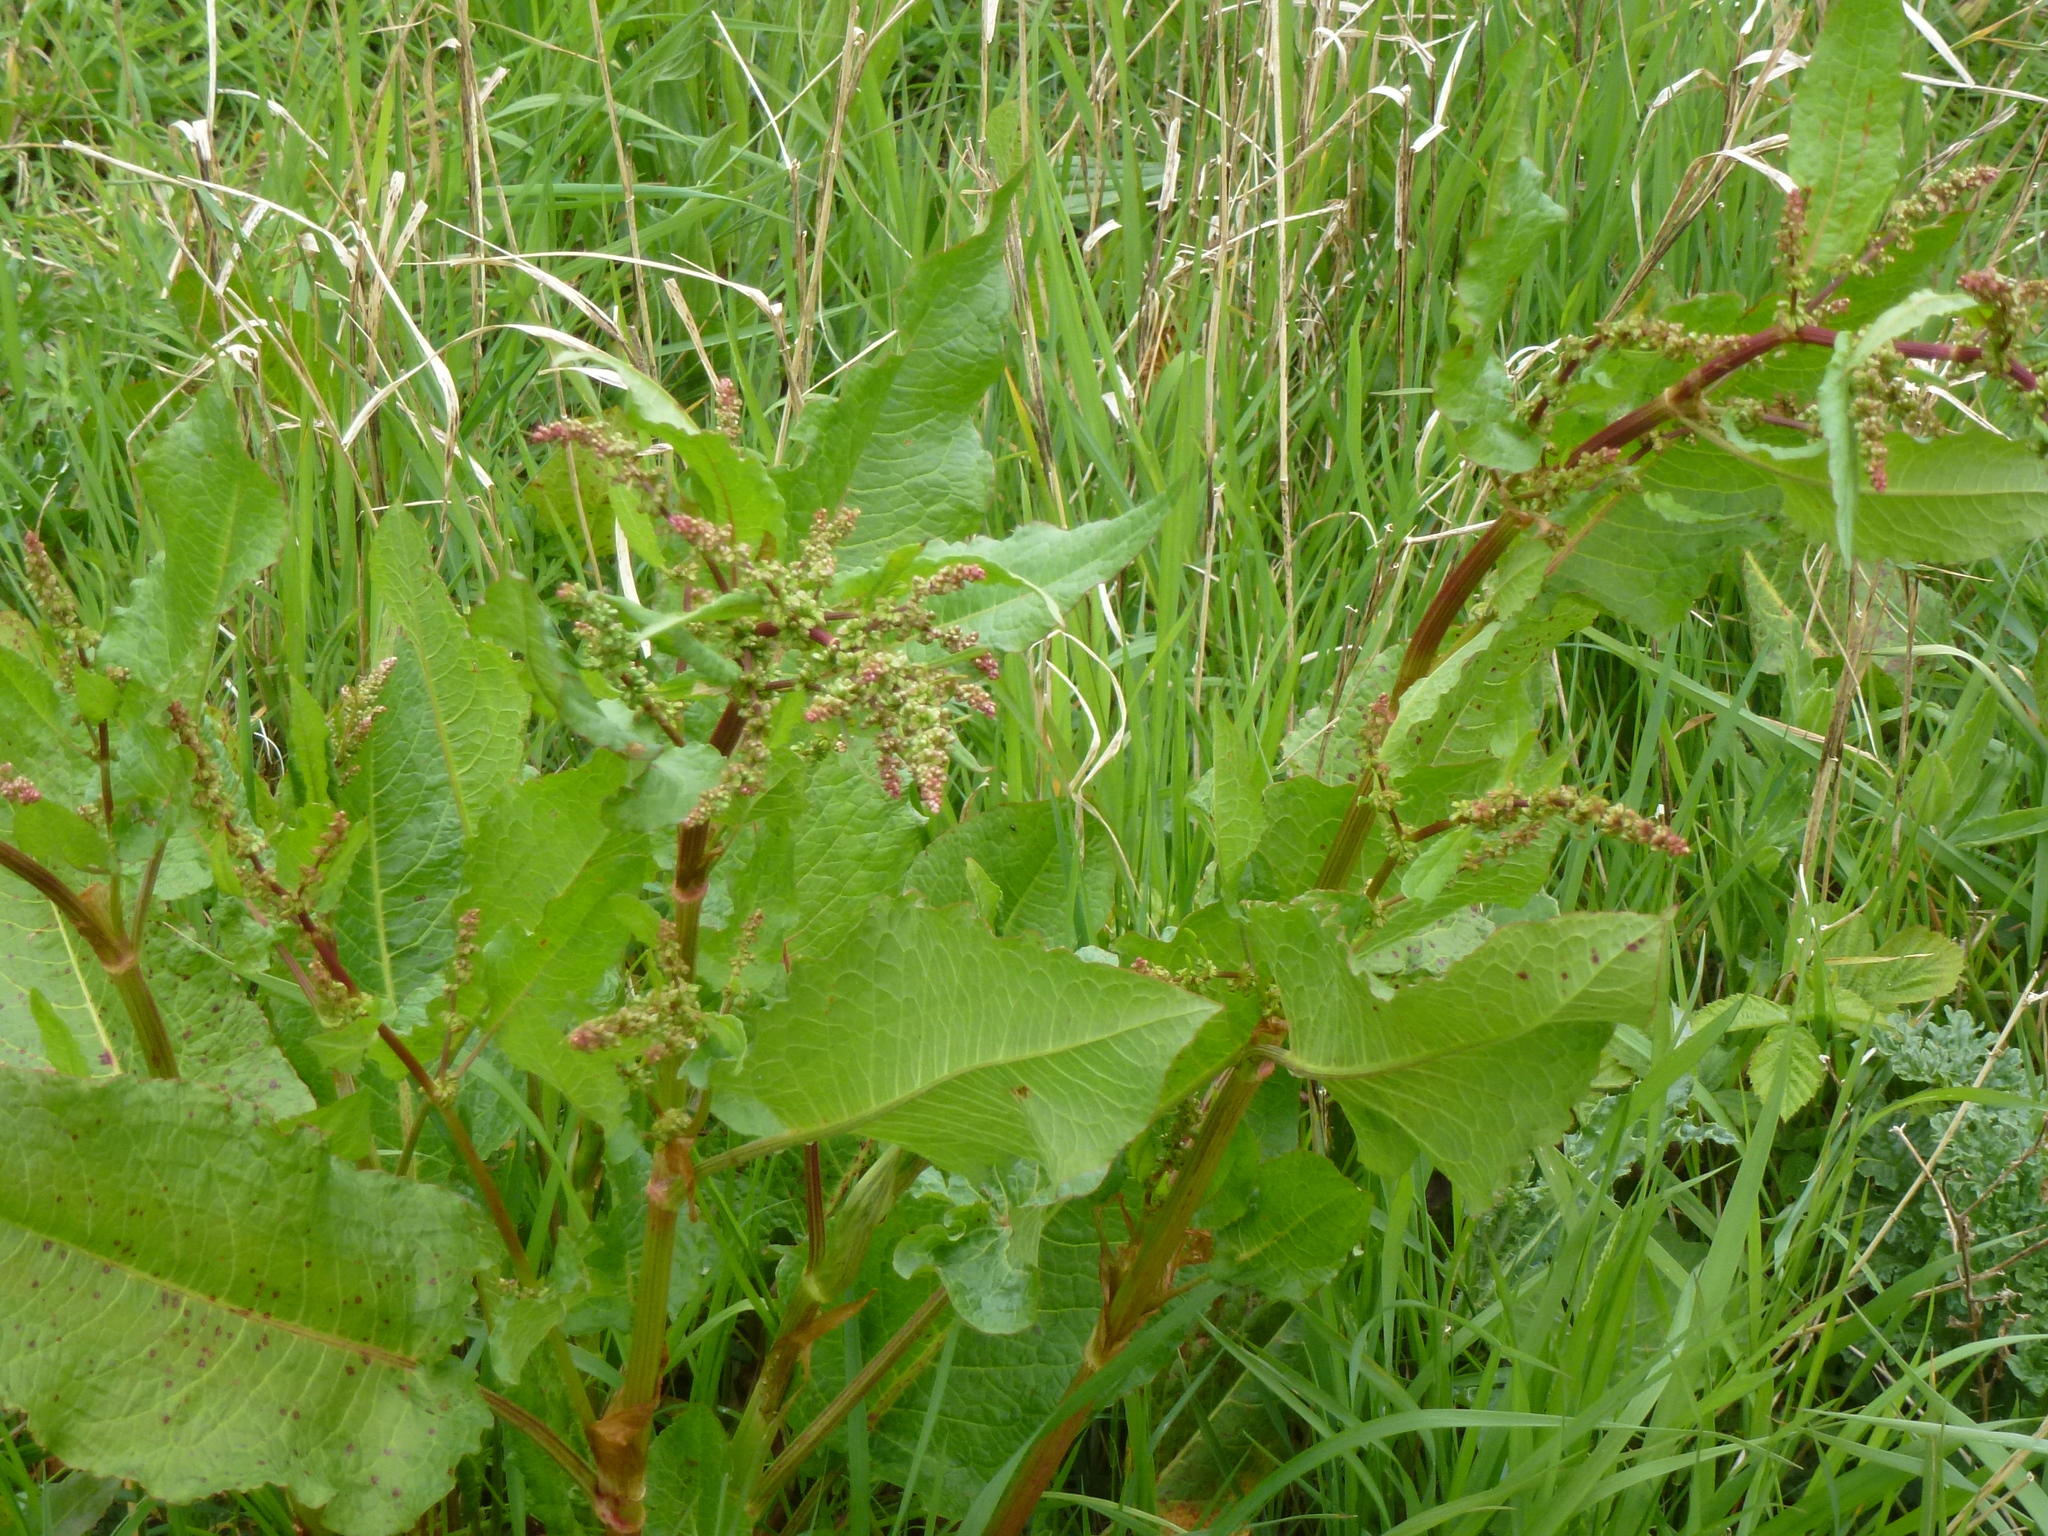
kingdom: Plantae
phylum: Tracheophyta
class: Magnoliopsida
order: Caryophyllales
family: Polygonaceae
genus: Rumex
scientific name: Rumex obtusifolius
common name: Bitter dock
